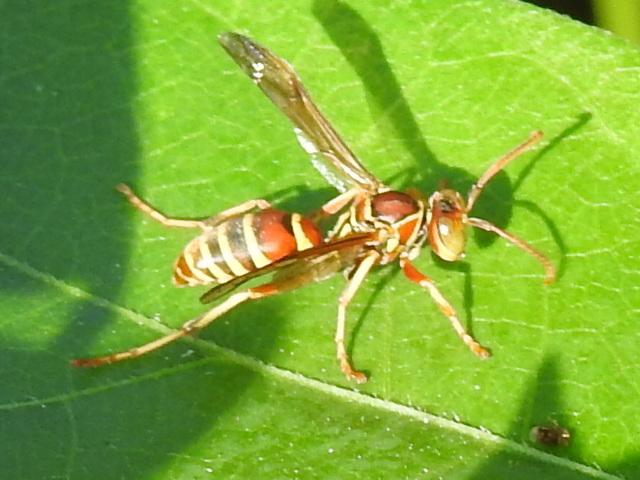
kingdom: Animalia
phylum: Arthropoda
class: Insecta
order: Hymenoptera
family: Eumenidae
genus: Polistes
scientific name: Polistes dorsalis
